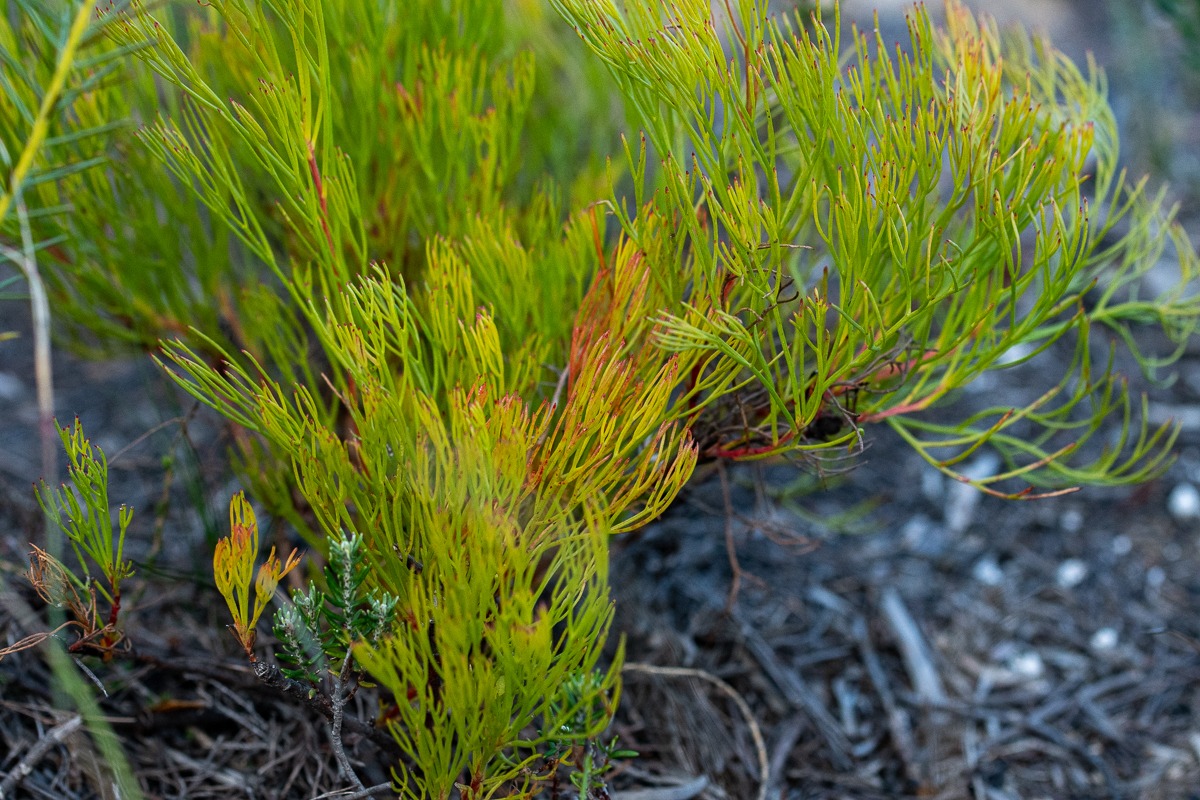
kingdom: Plantae
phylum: Tracheophyta
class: Magnoliopsida
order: Proteales
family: Proteaceae
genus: Serruria
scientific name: Serruria rubricaulis
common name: Red-stem spiderhead
